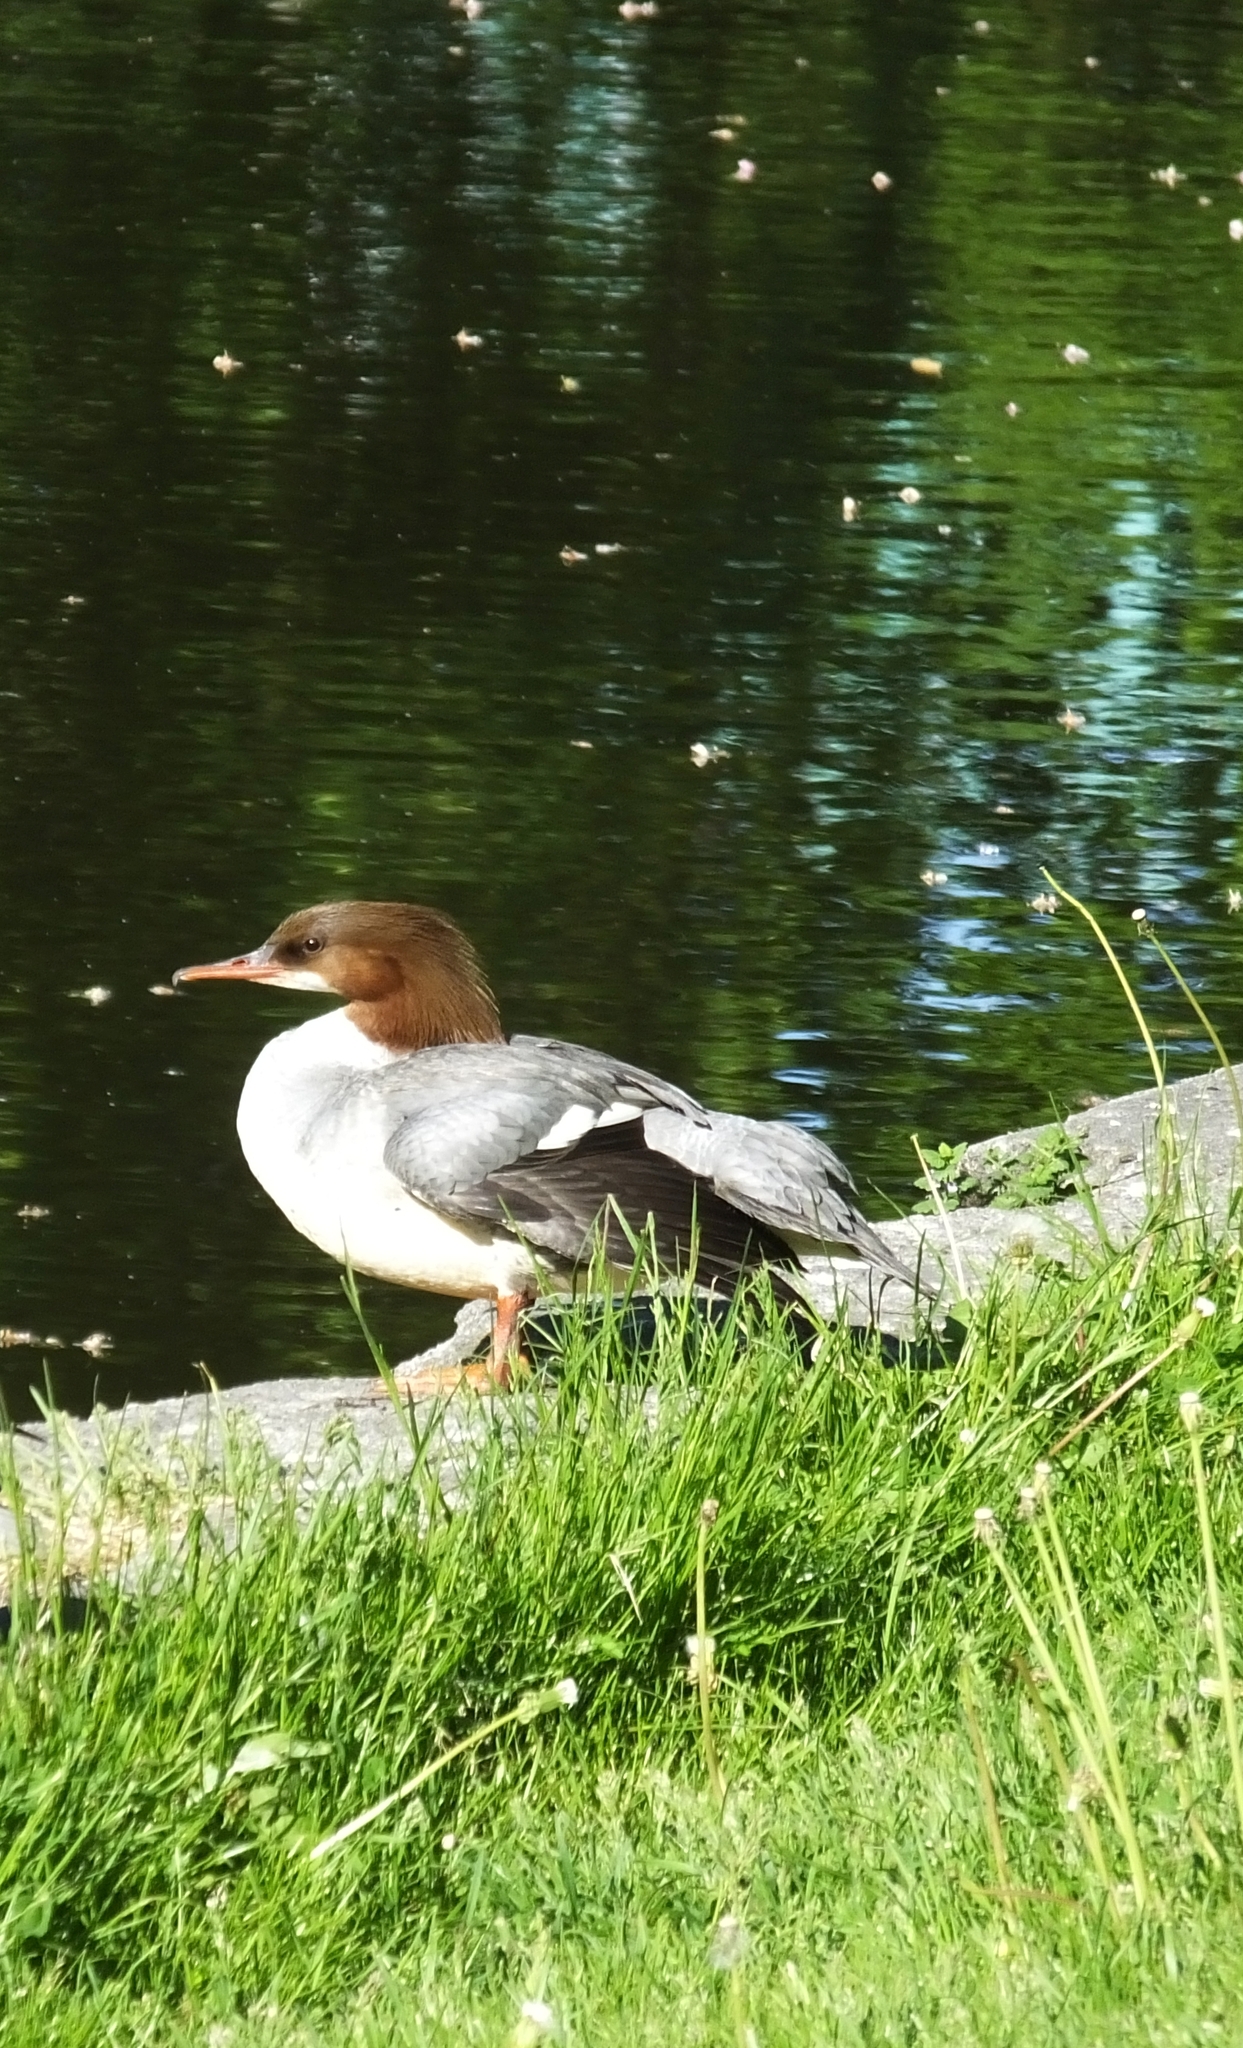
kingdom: Animalia
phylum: Chordata
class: Aves
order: Anseriformes
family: Anatidae
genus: Mergus
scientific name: Mergus merganser
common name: Common merganser
